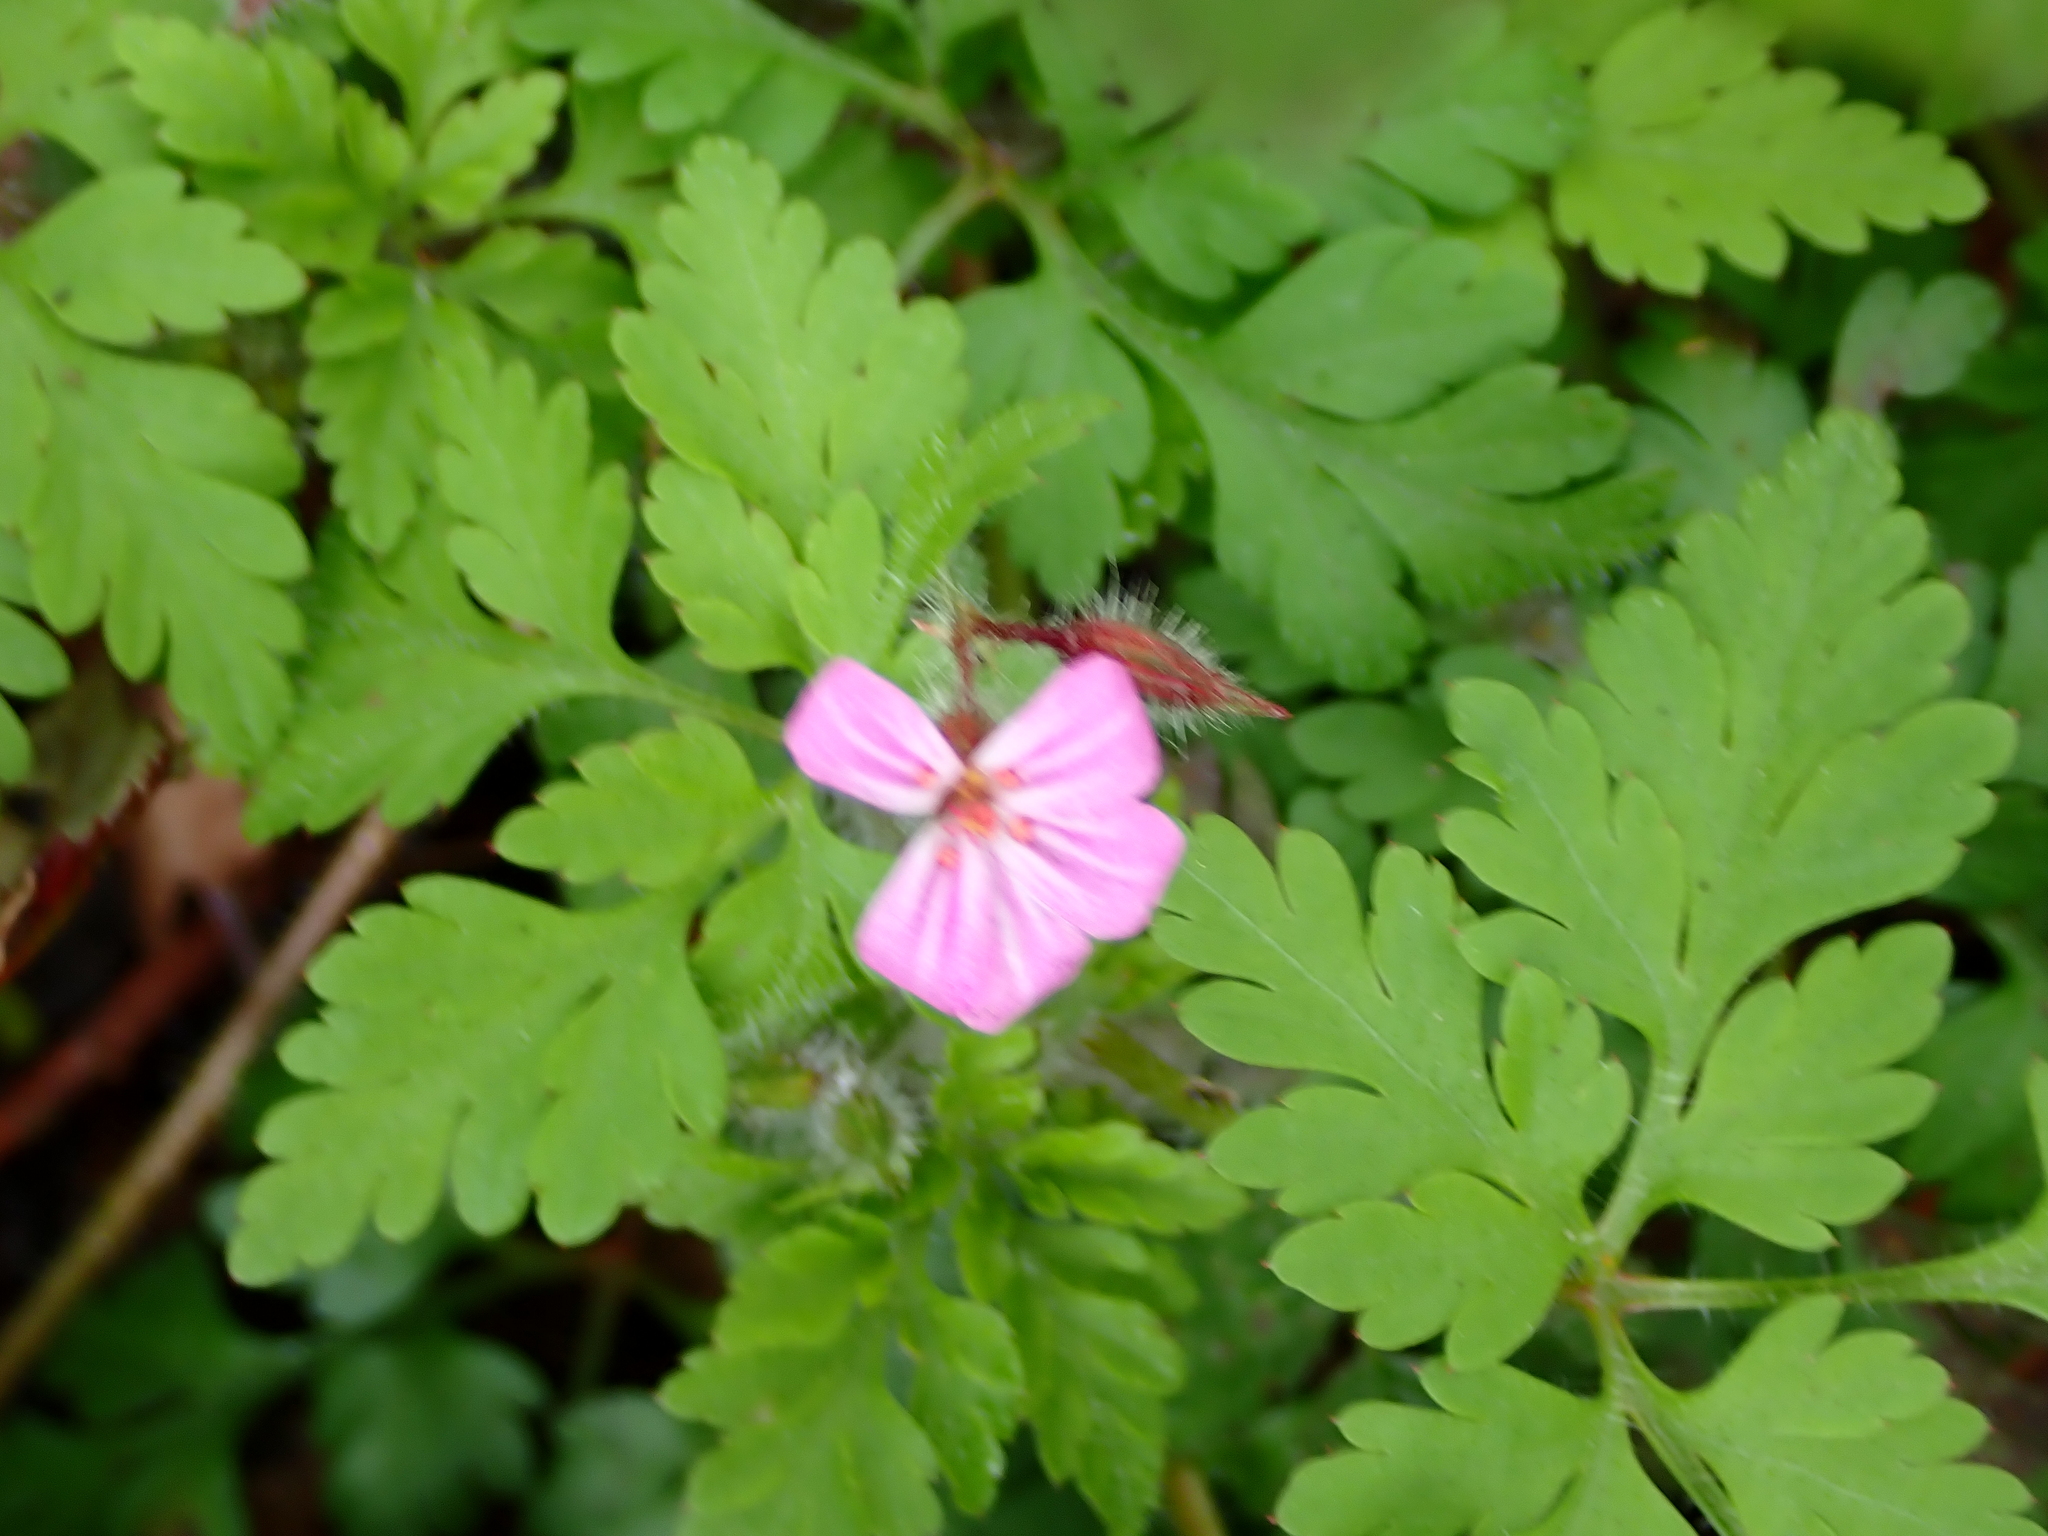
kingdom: Plantae
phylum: Tracheophyta
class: Magnoliopsida
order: Geraniales
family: Geraniaceae
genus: Geranium
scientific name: Geranium robertianum
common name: Herb-robert
